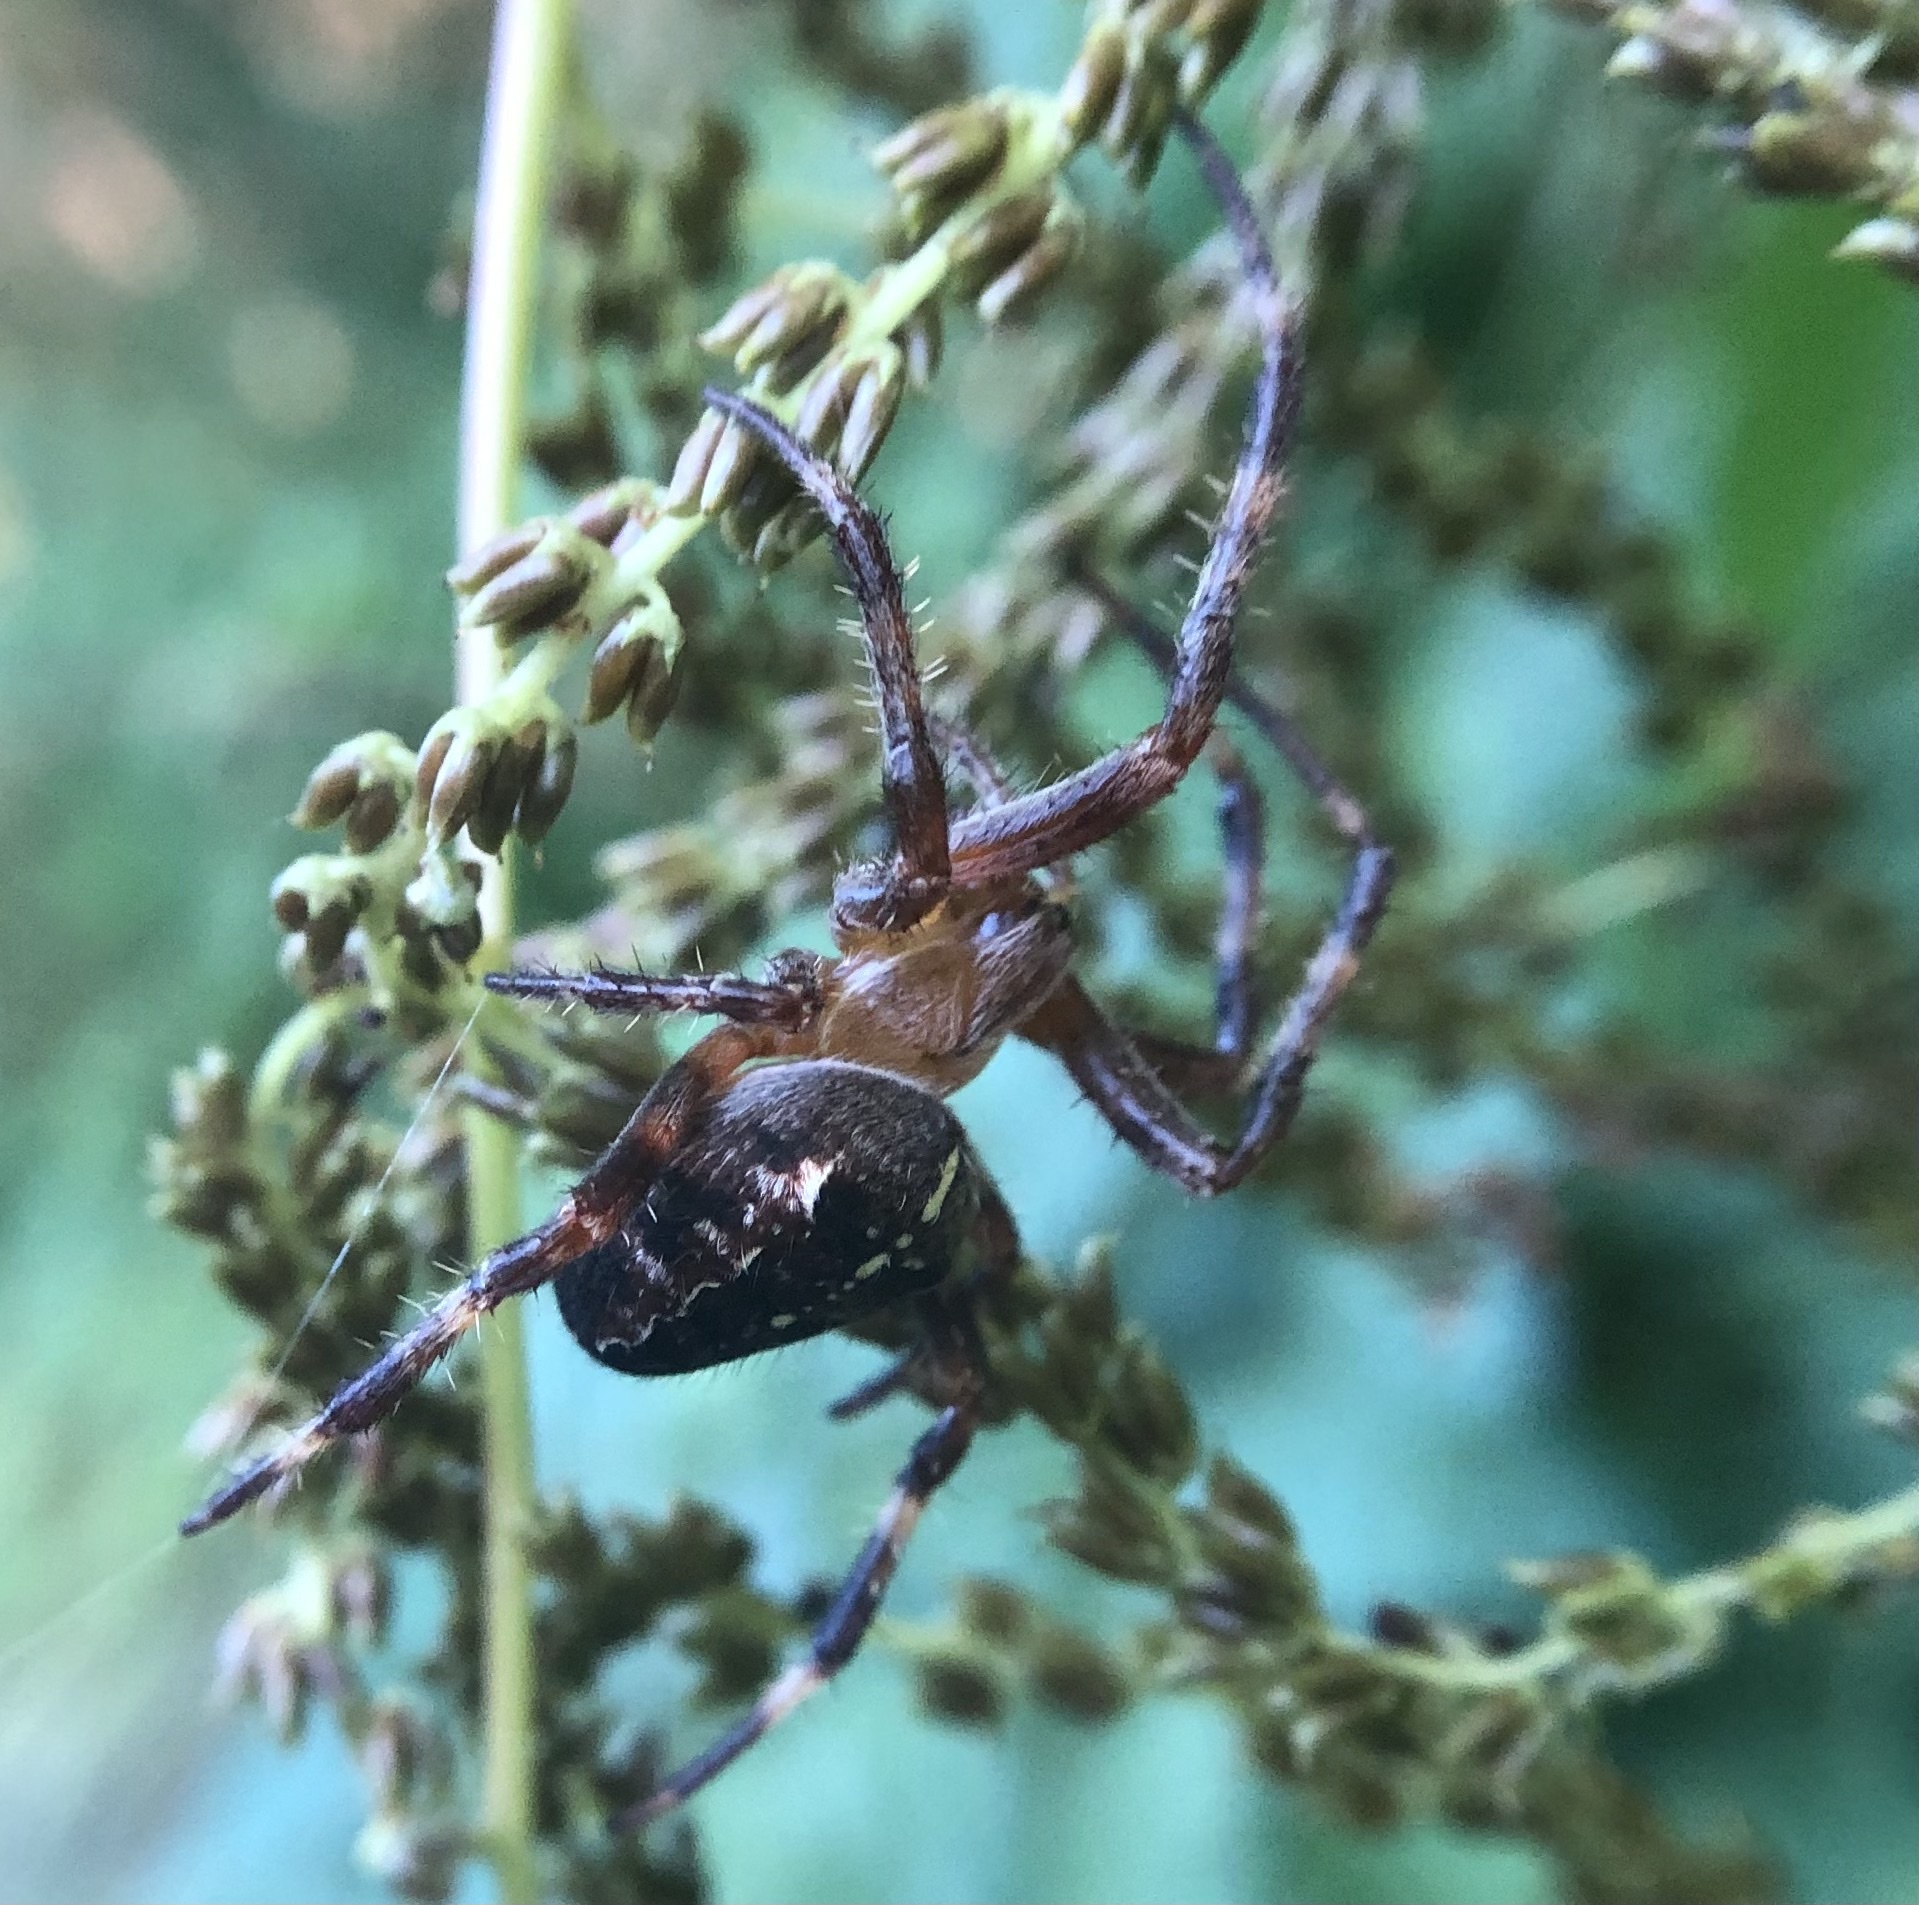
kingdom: Animalia
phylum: Arthropoda
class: Arachnida
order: Araneae
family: Araneidae
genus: Araneus
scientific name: Araneus diadematus
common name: Cross orbweaver
